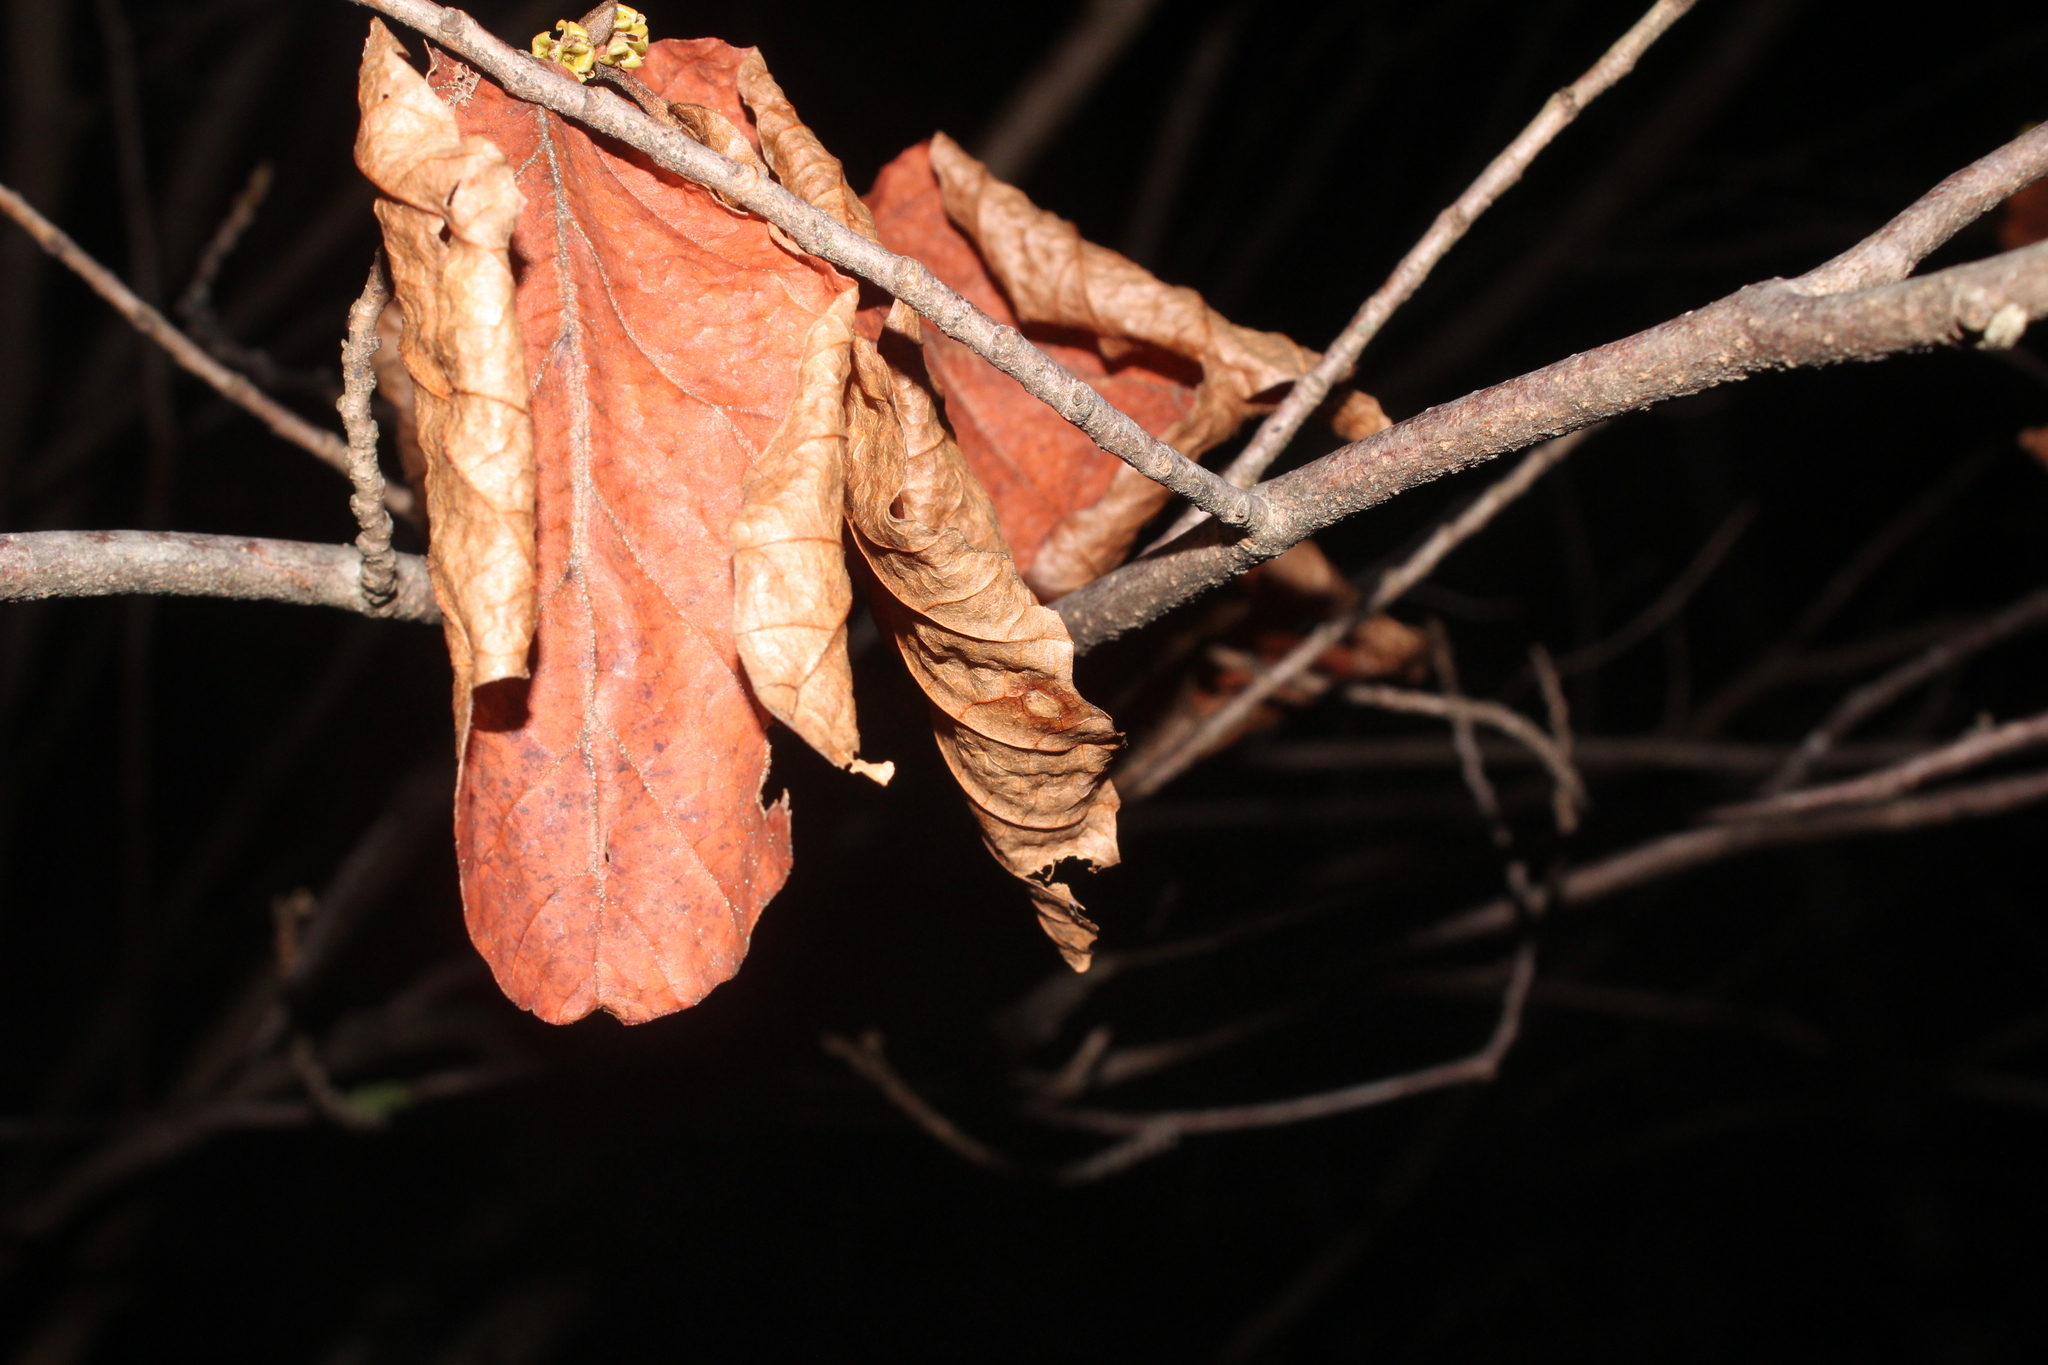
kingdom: Plantae
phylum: Tracheophyta
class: Magnoliopsida
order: Saxifragales
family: Hamamelidaceae
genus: Hamamelis
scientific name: Hamamelis virginiana
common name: Witch-hazel
